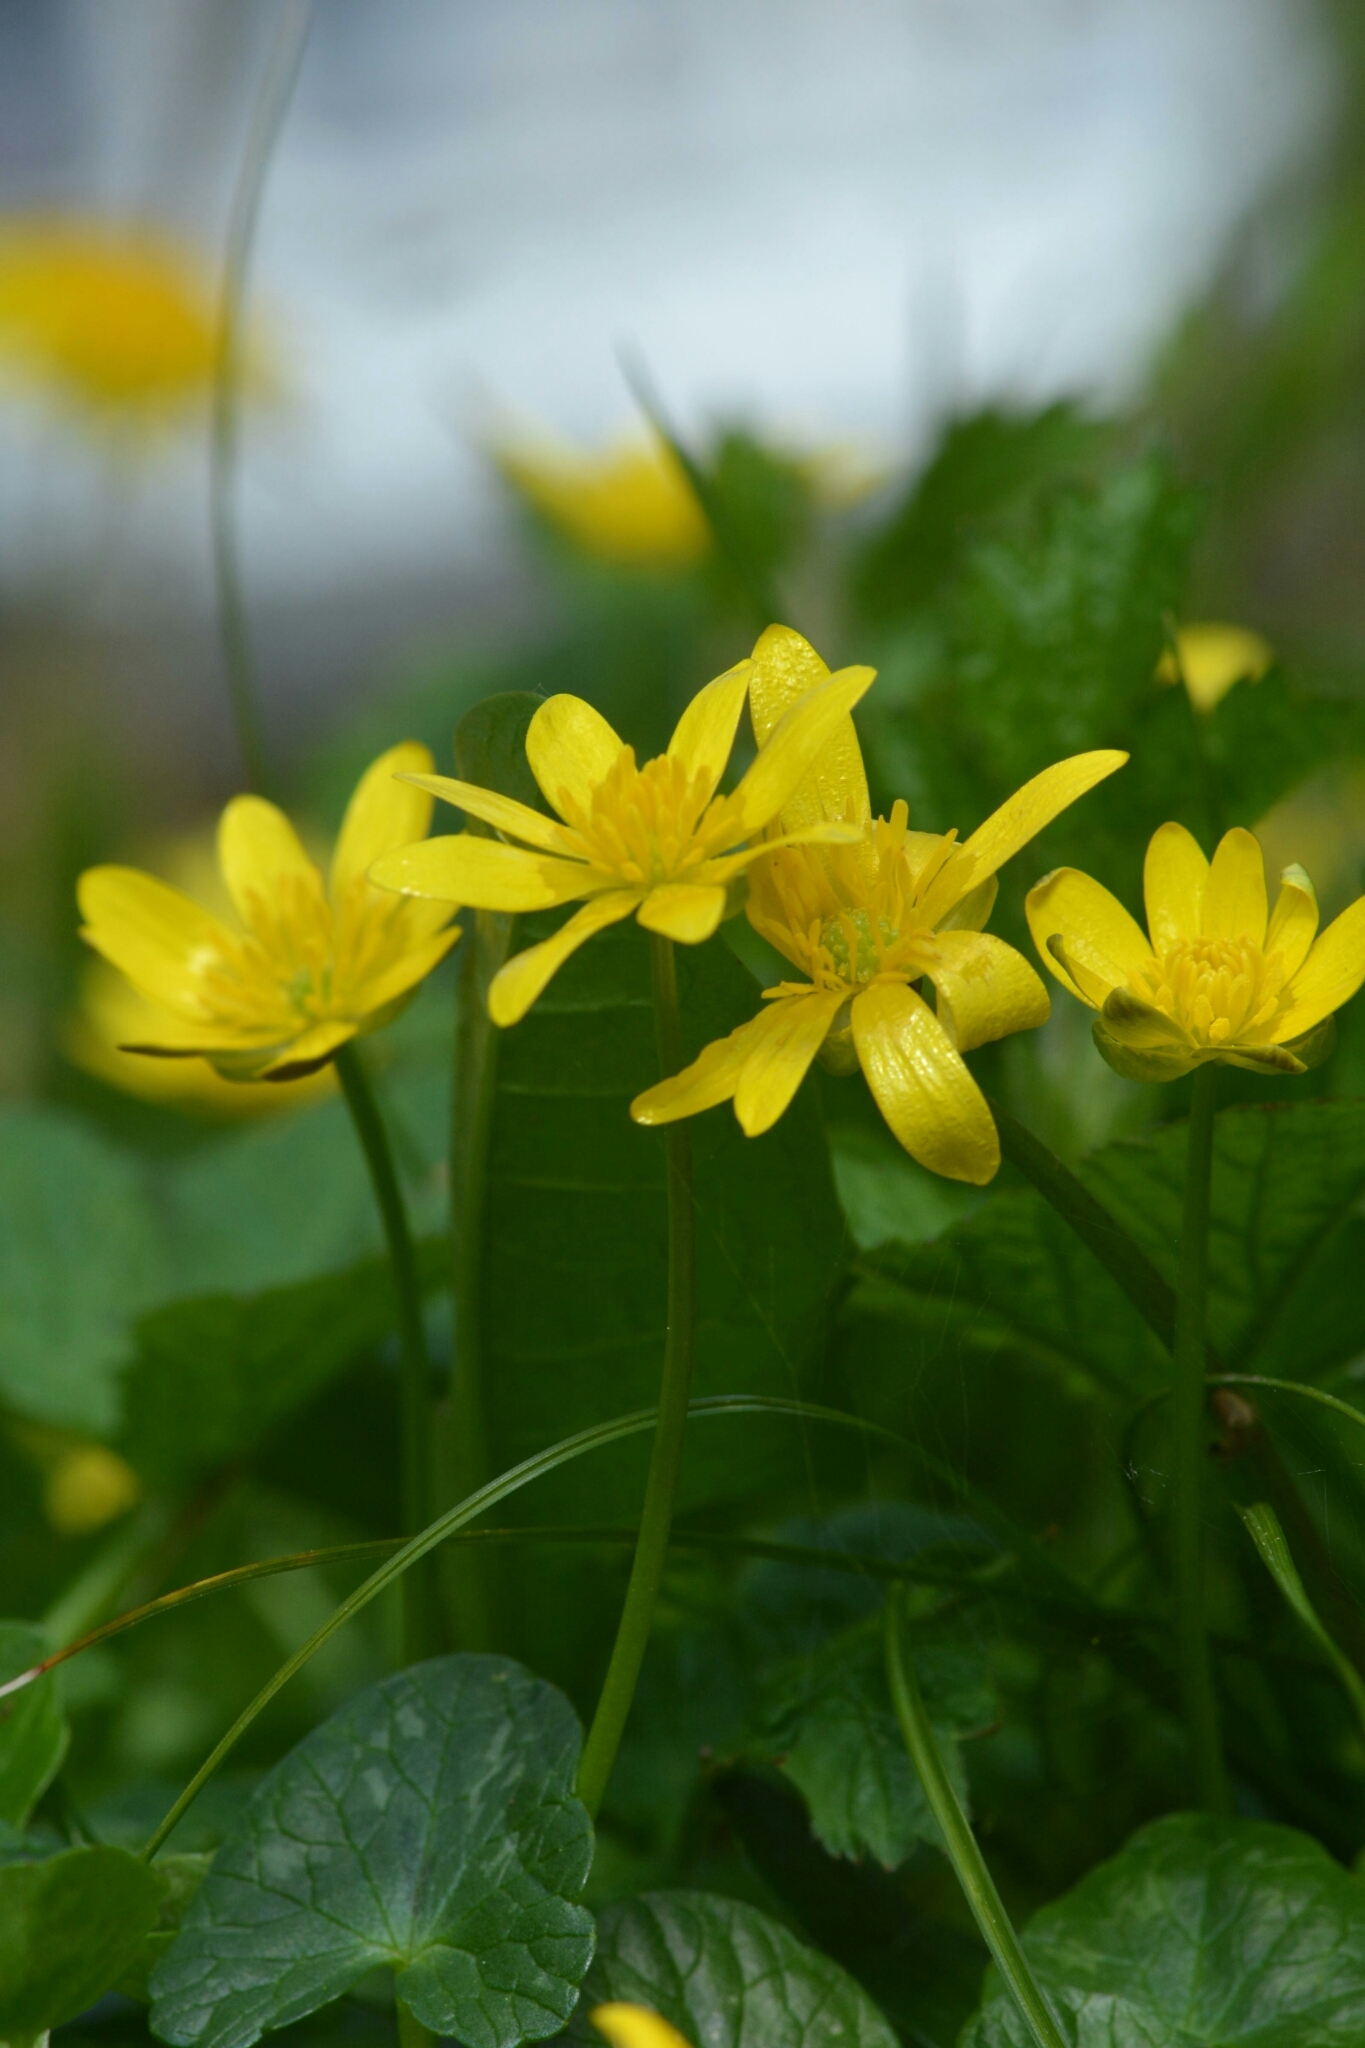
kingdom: Plantae
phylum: Tracheophyta
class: Magnoliopsida
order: Ranunculales
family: Ranunculaceae
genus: Ficaria
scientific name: Ficaria verna
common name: Lesser celandine
